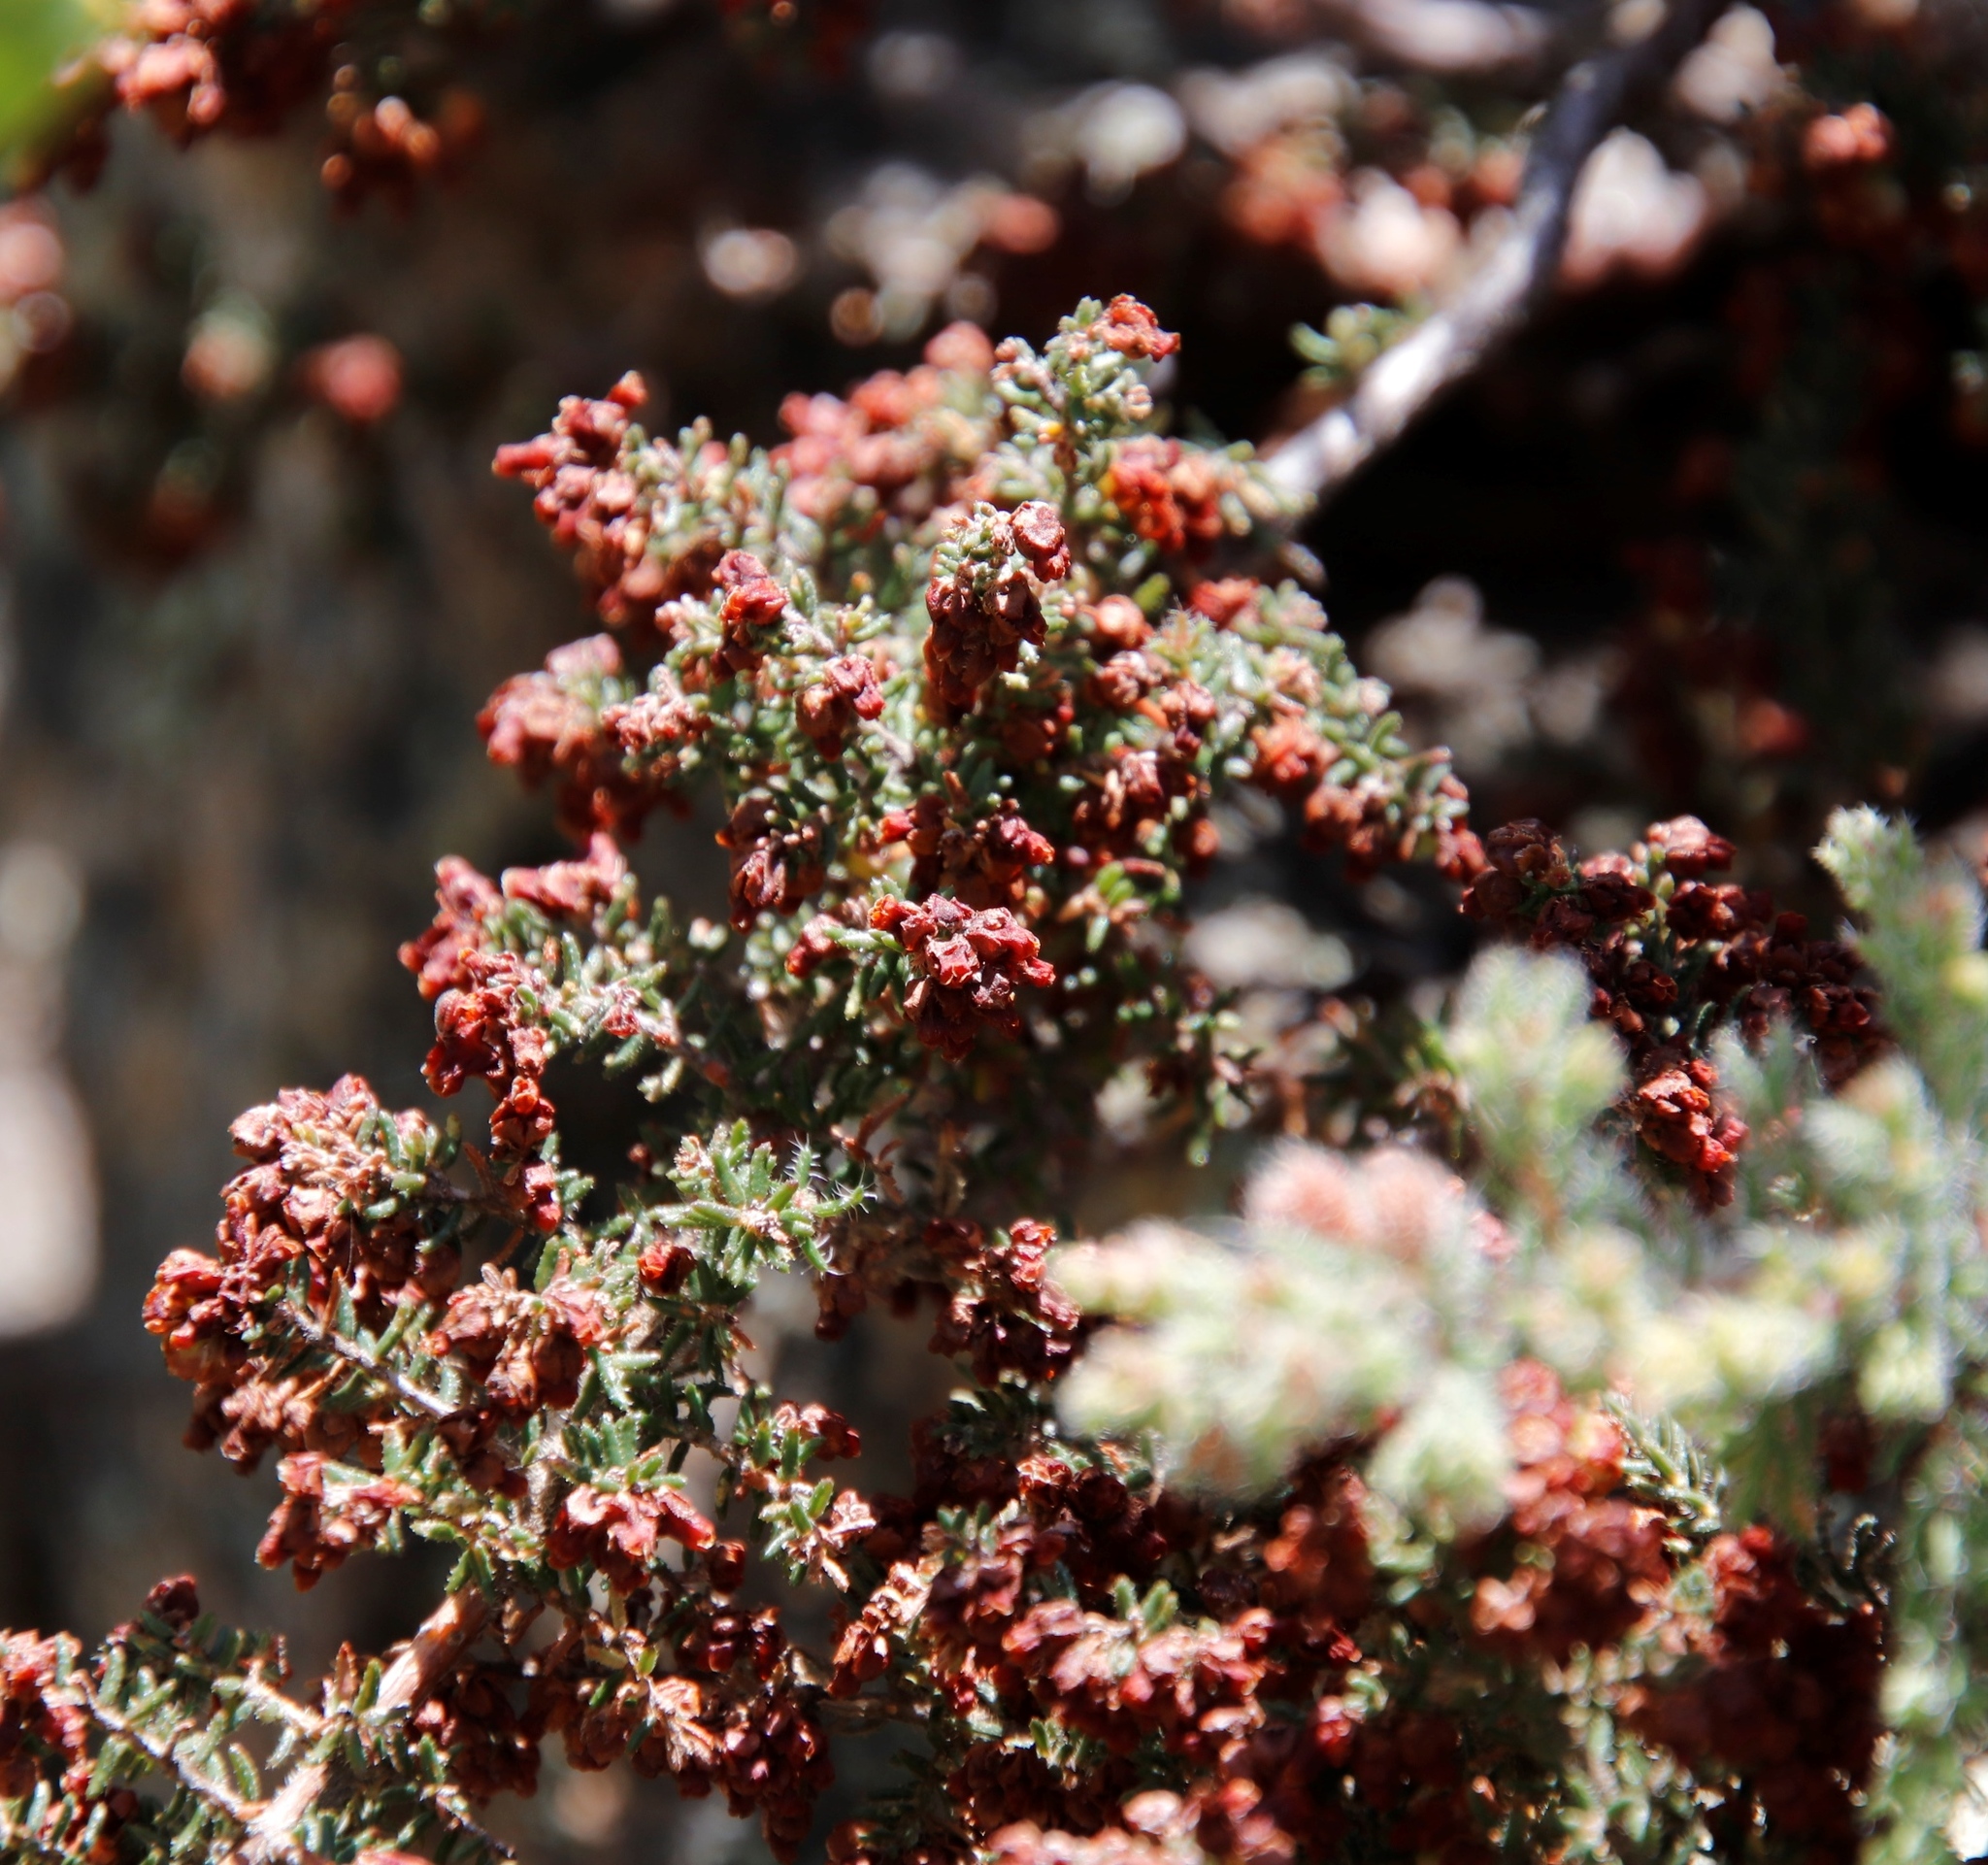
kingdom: Plantae
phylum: Tracheophyta
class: Magnoliopsida
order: Ericales
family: Ericaceae
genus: Erica
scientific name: Erica totta
